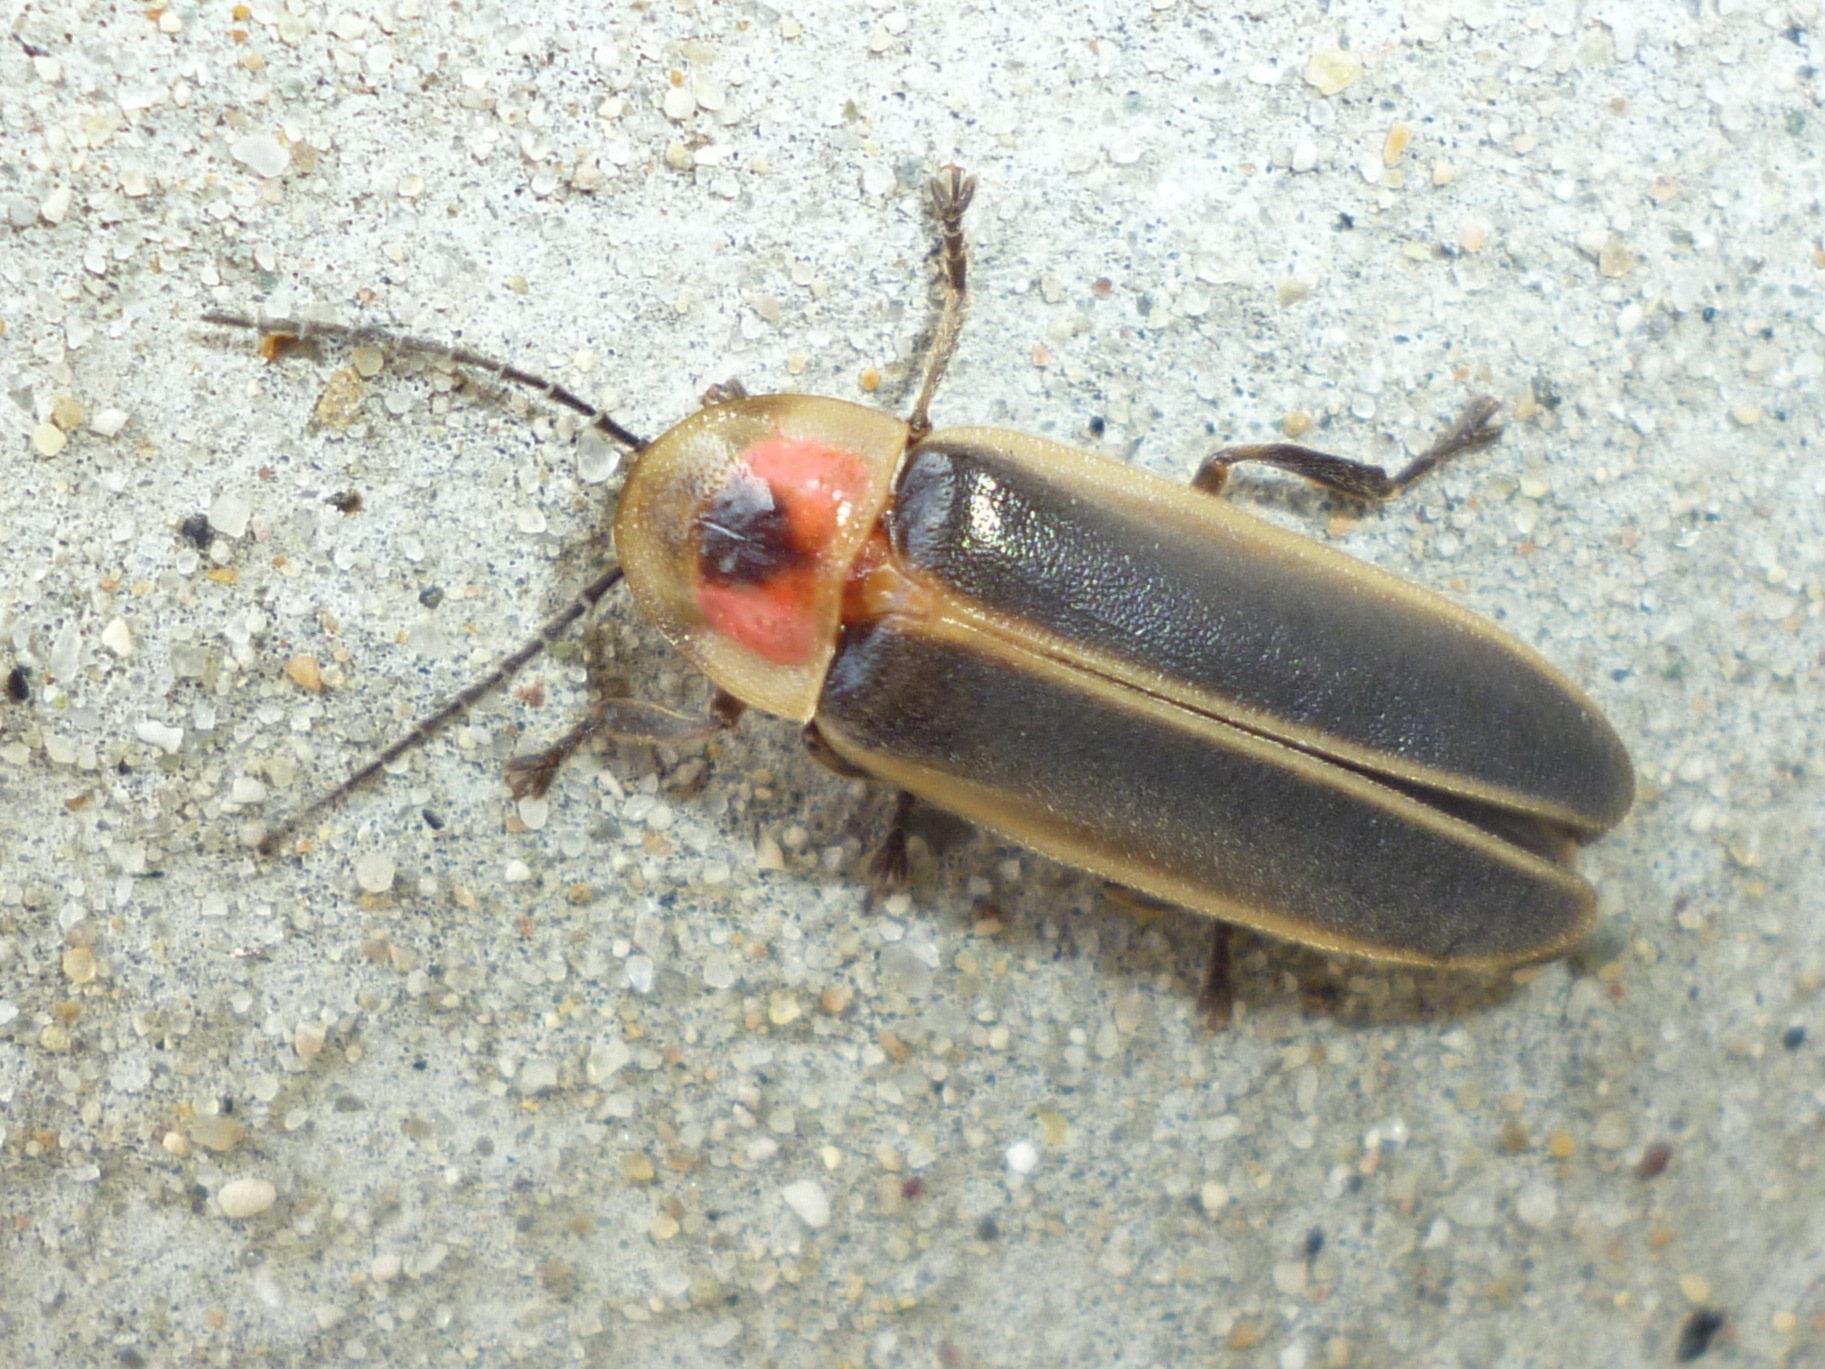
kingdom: Animalia
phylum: Arthropoda
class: Insecta
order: Coleoptera
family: Lampyridae
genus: Photinus
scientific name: Photinus pyralis
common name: Big dipper firefly
